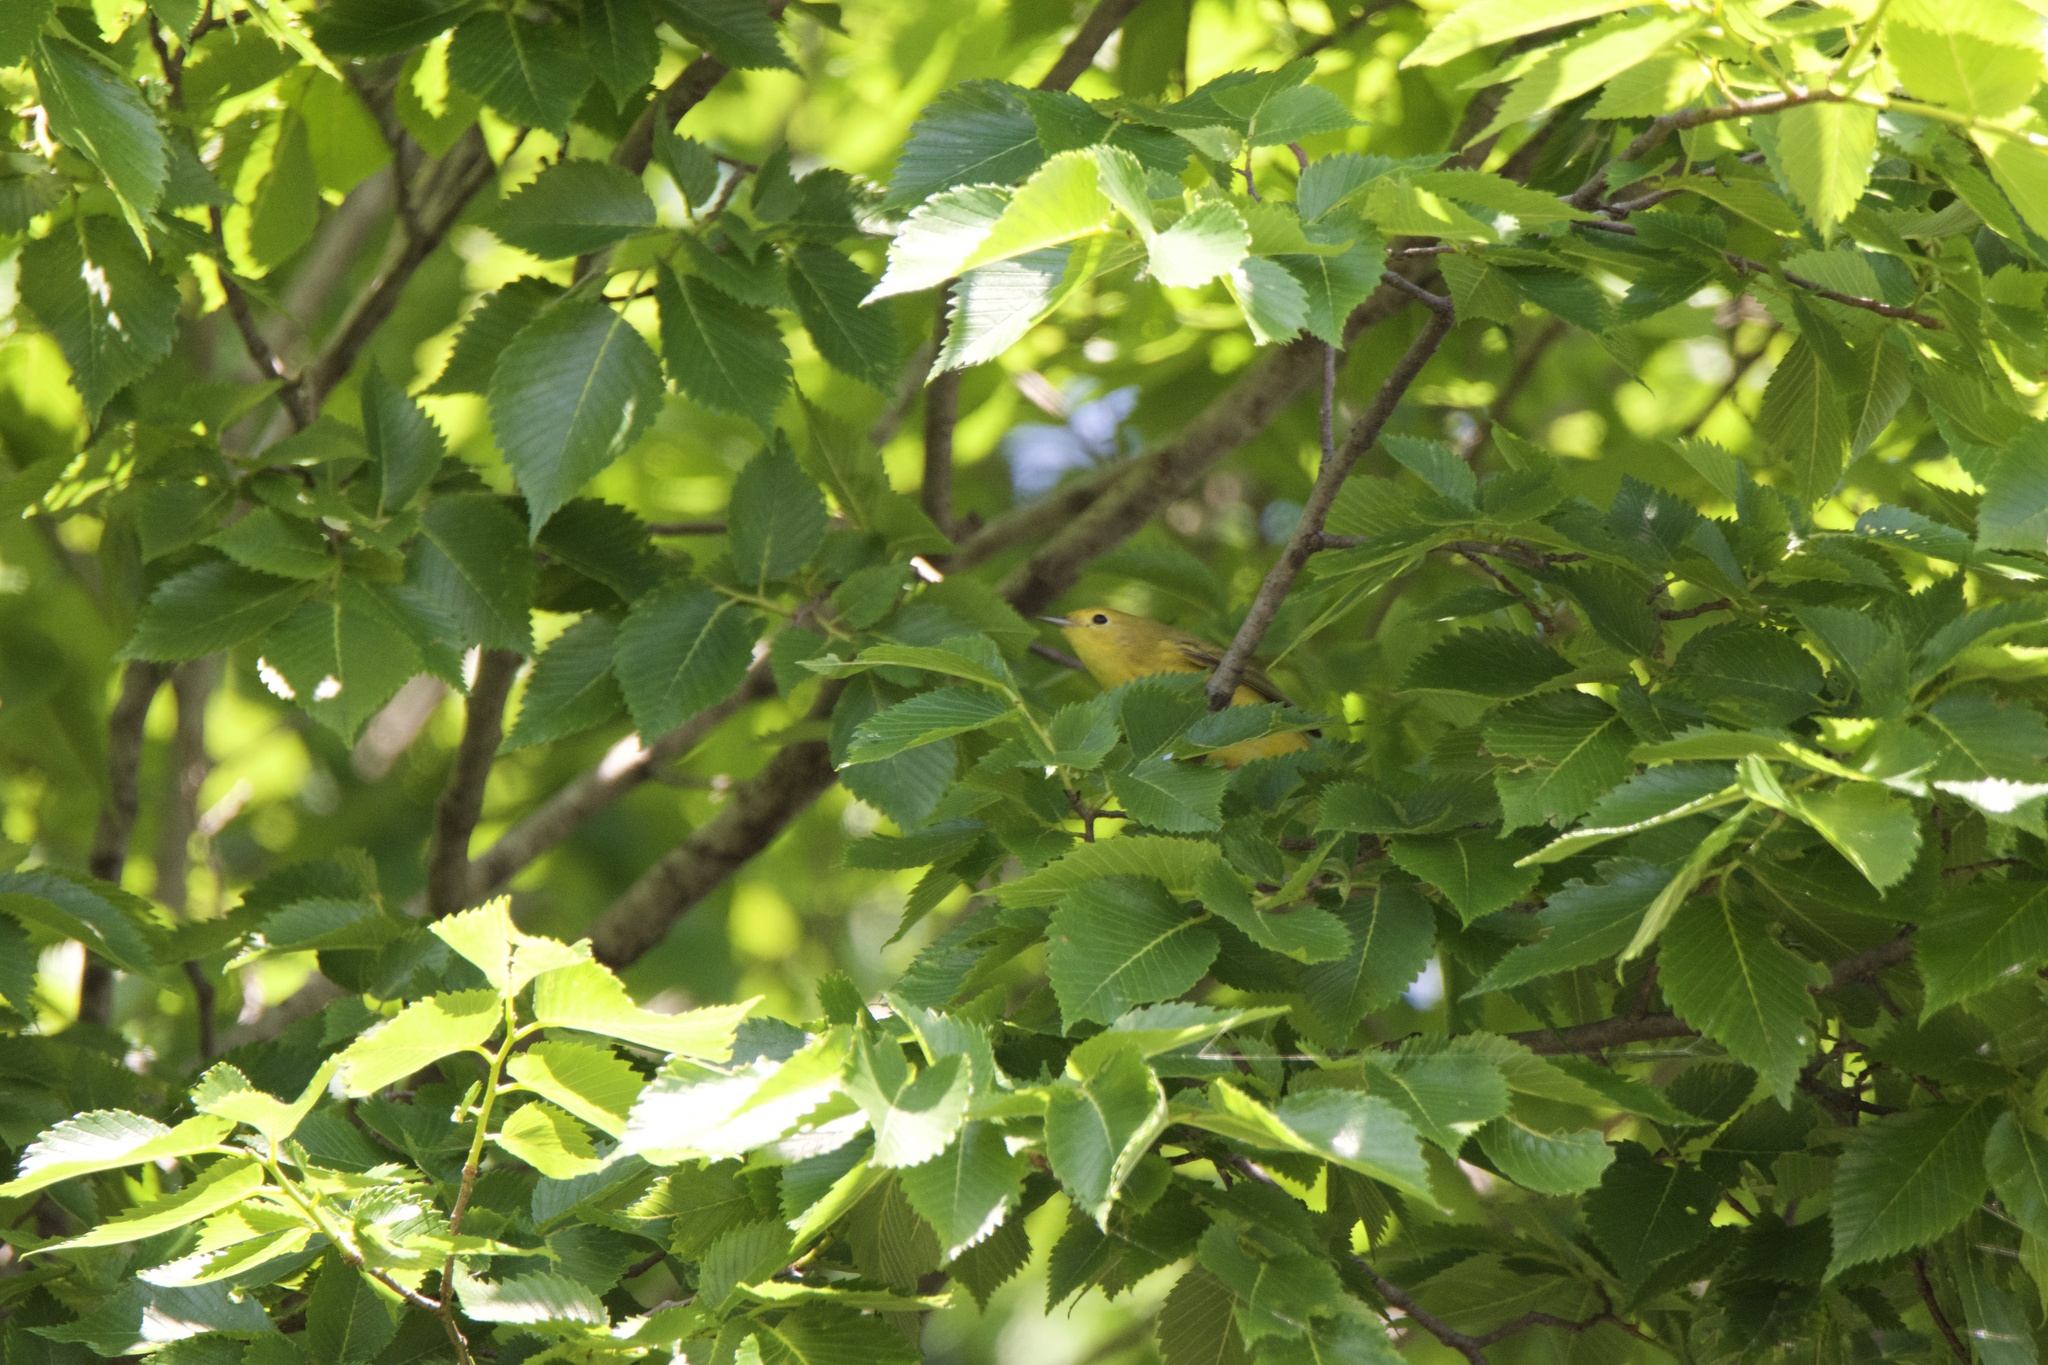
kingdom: Animalia
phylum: Chordata
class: Aves
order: Passeriformes
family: Parulidae
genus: Setophaga
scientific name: Setophaga petechia
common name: Yellow warbler
